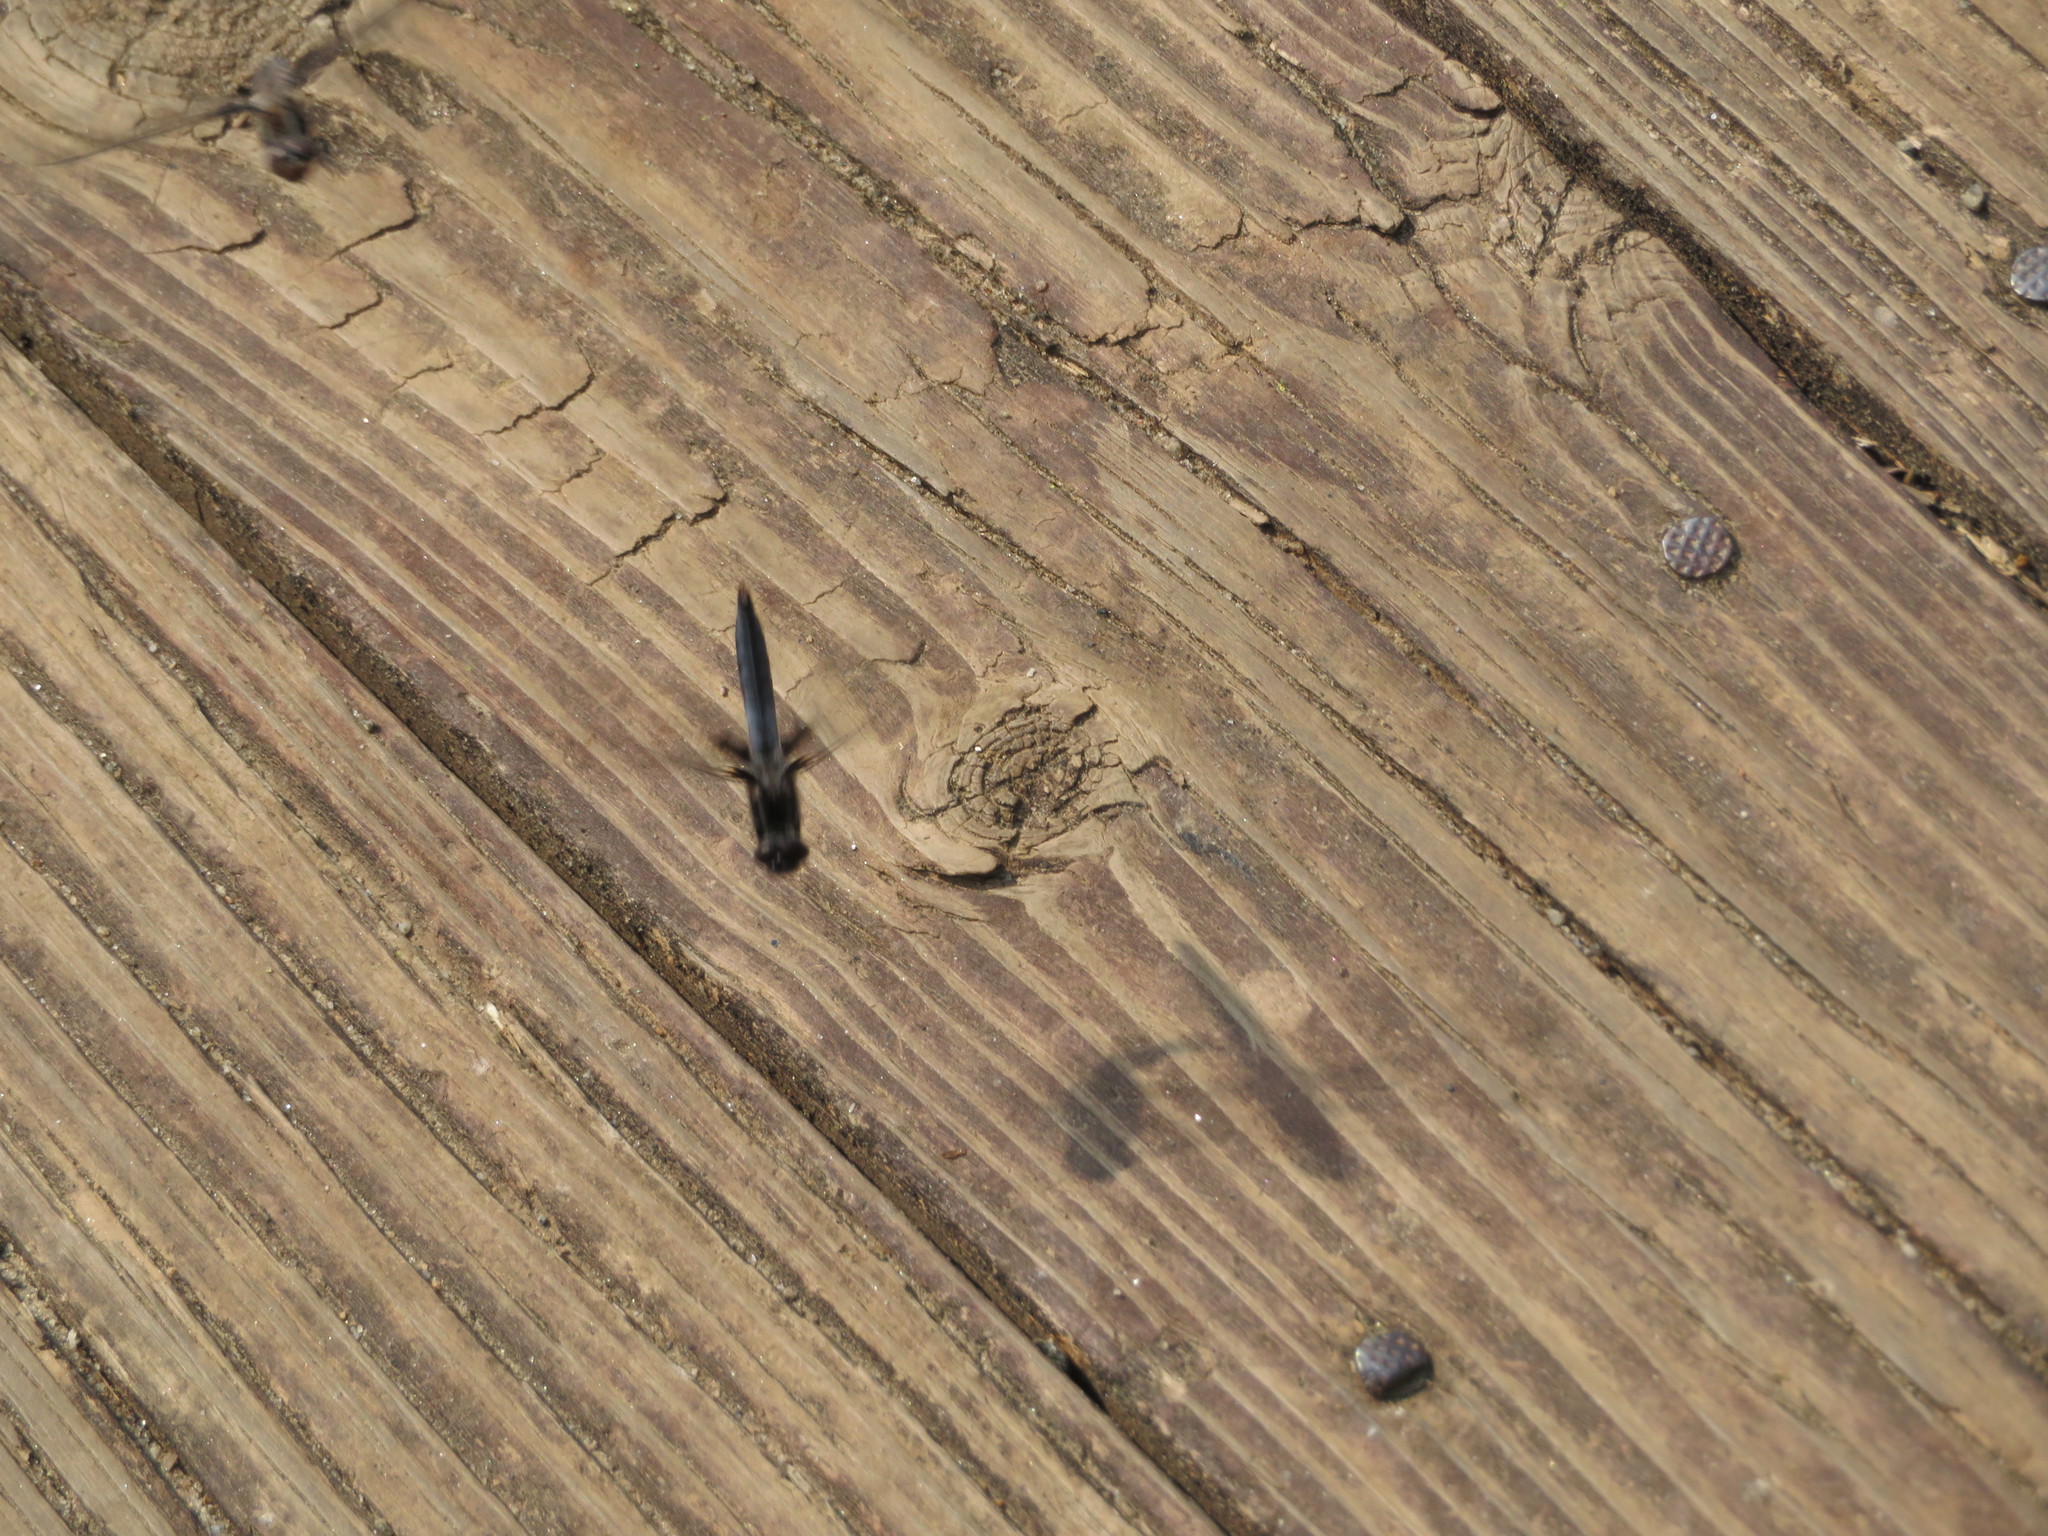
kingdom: Animalia
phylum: Arthropoda
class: Insecta
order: Odonata
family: Libellulidae
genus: Ladona
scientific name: Ladona deplanata
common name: Blue corporal
